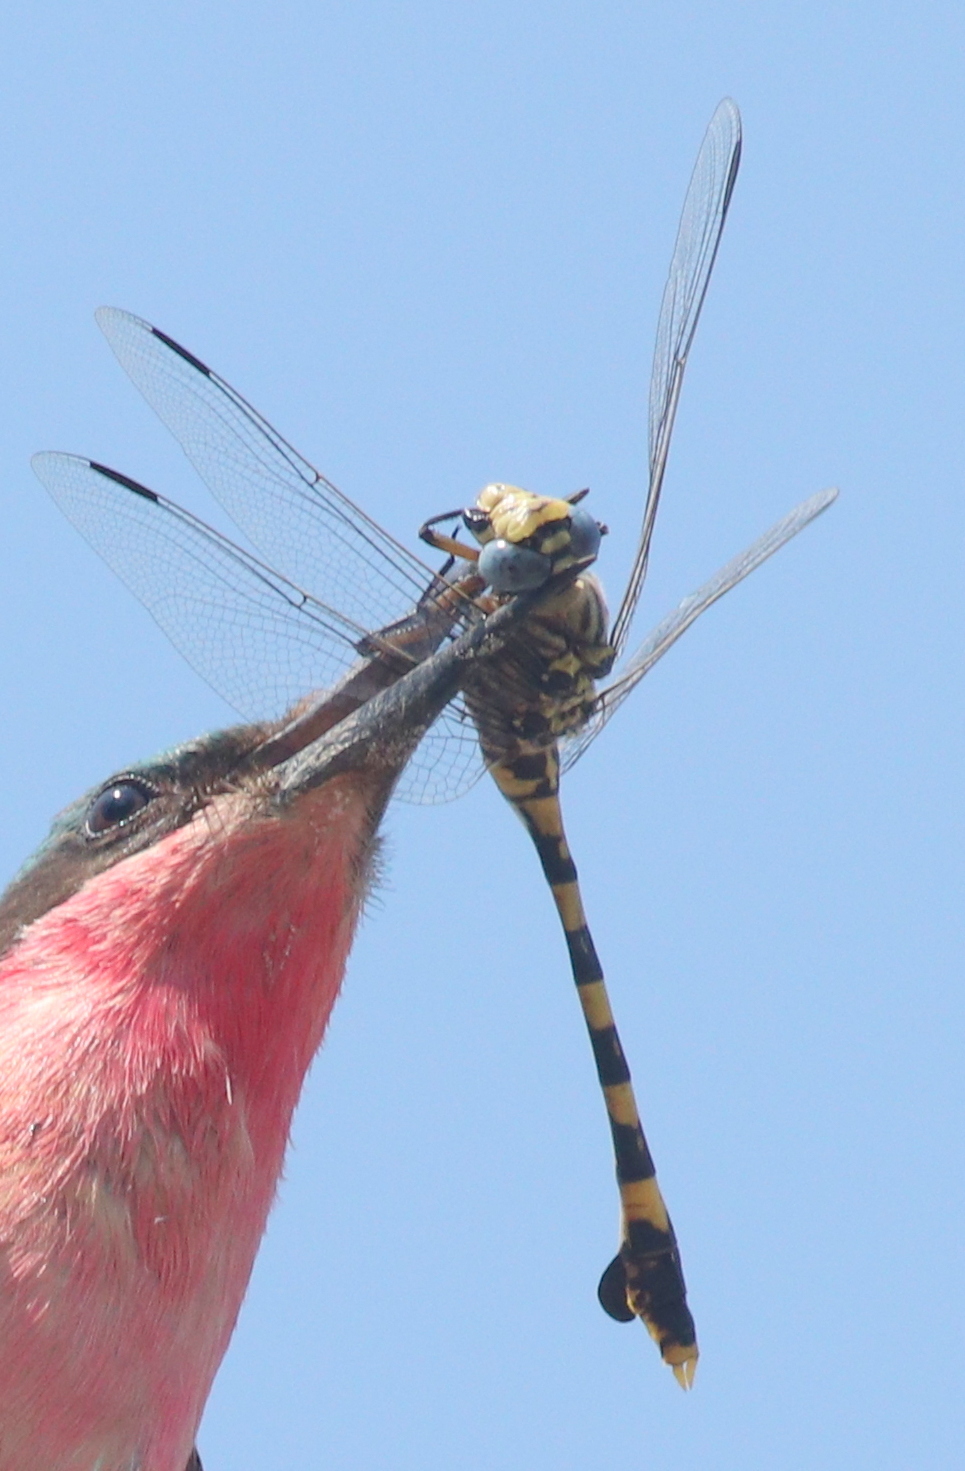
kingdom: Animalia
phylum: Arthropoda
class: Insecta
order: Odonata
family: Gomphidae
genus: Ictinogomphus
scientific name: Ictinogomphus ferox
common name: Common tiger
